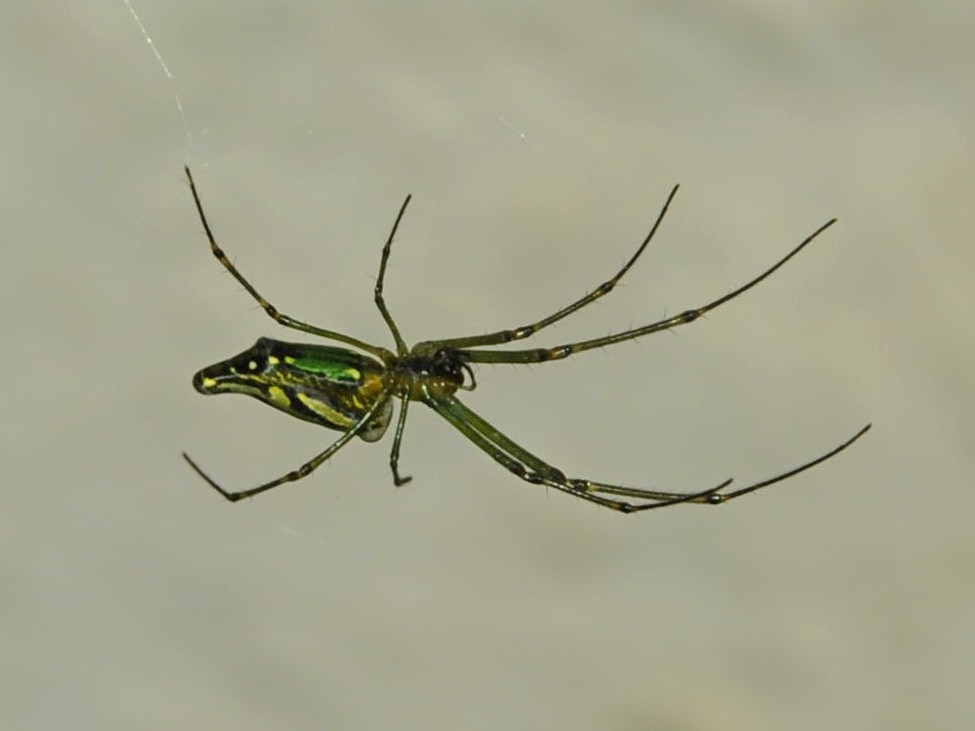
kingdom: Animalia
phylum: Arthropoda
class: Arachnida
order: Araneae
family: Tetragnathidae
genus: Leucauge
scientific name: Leucauge decorata
